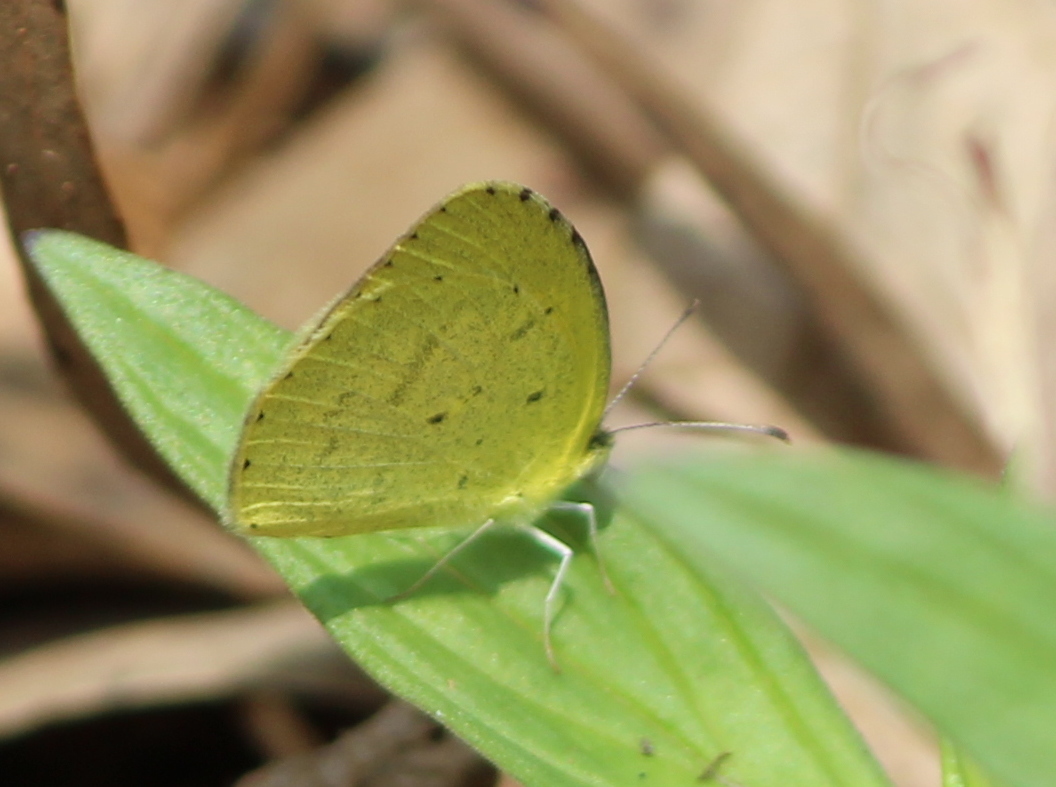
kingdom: Animalia
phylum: Arthropoda
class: Insecta
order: Lepidoptera
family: Pieridae
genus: Eurema
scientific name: Eurema brigitta
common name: Small grass yellow
